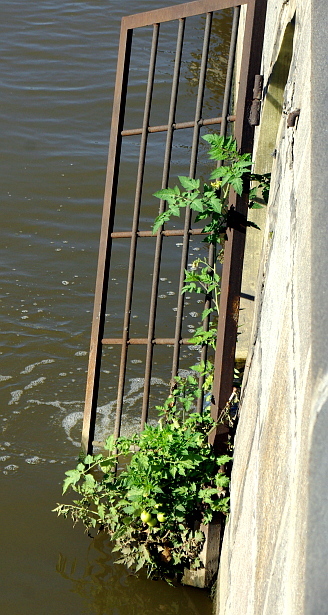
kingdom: Plantae
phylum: Tracheophyta
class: Magnoliopsida
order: Solanales
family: Solanaceae
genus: Solanum
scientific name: Solanum lycopersicum
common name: Garden tomato
